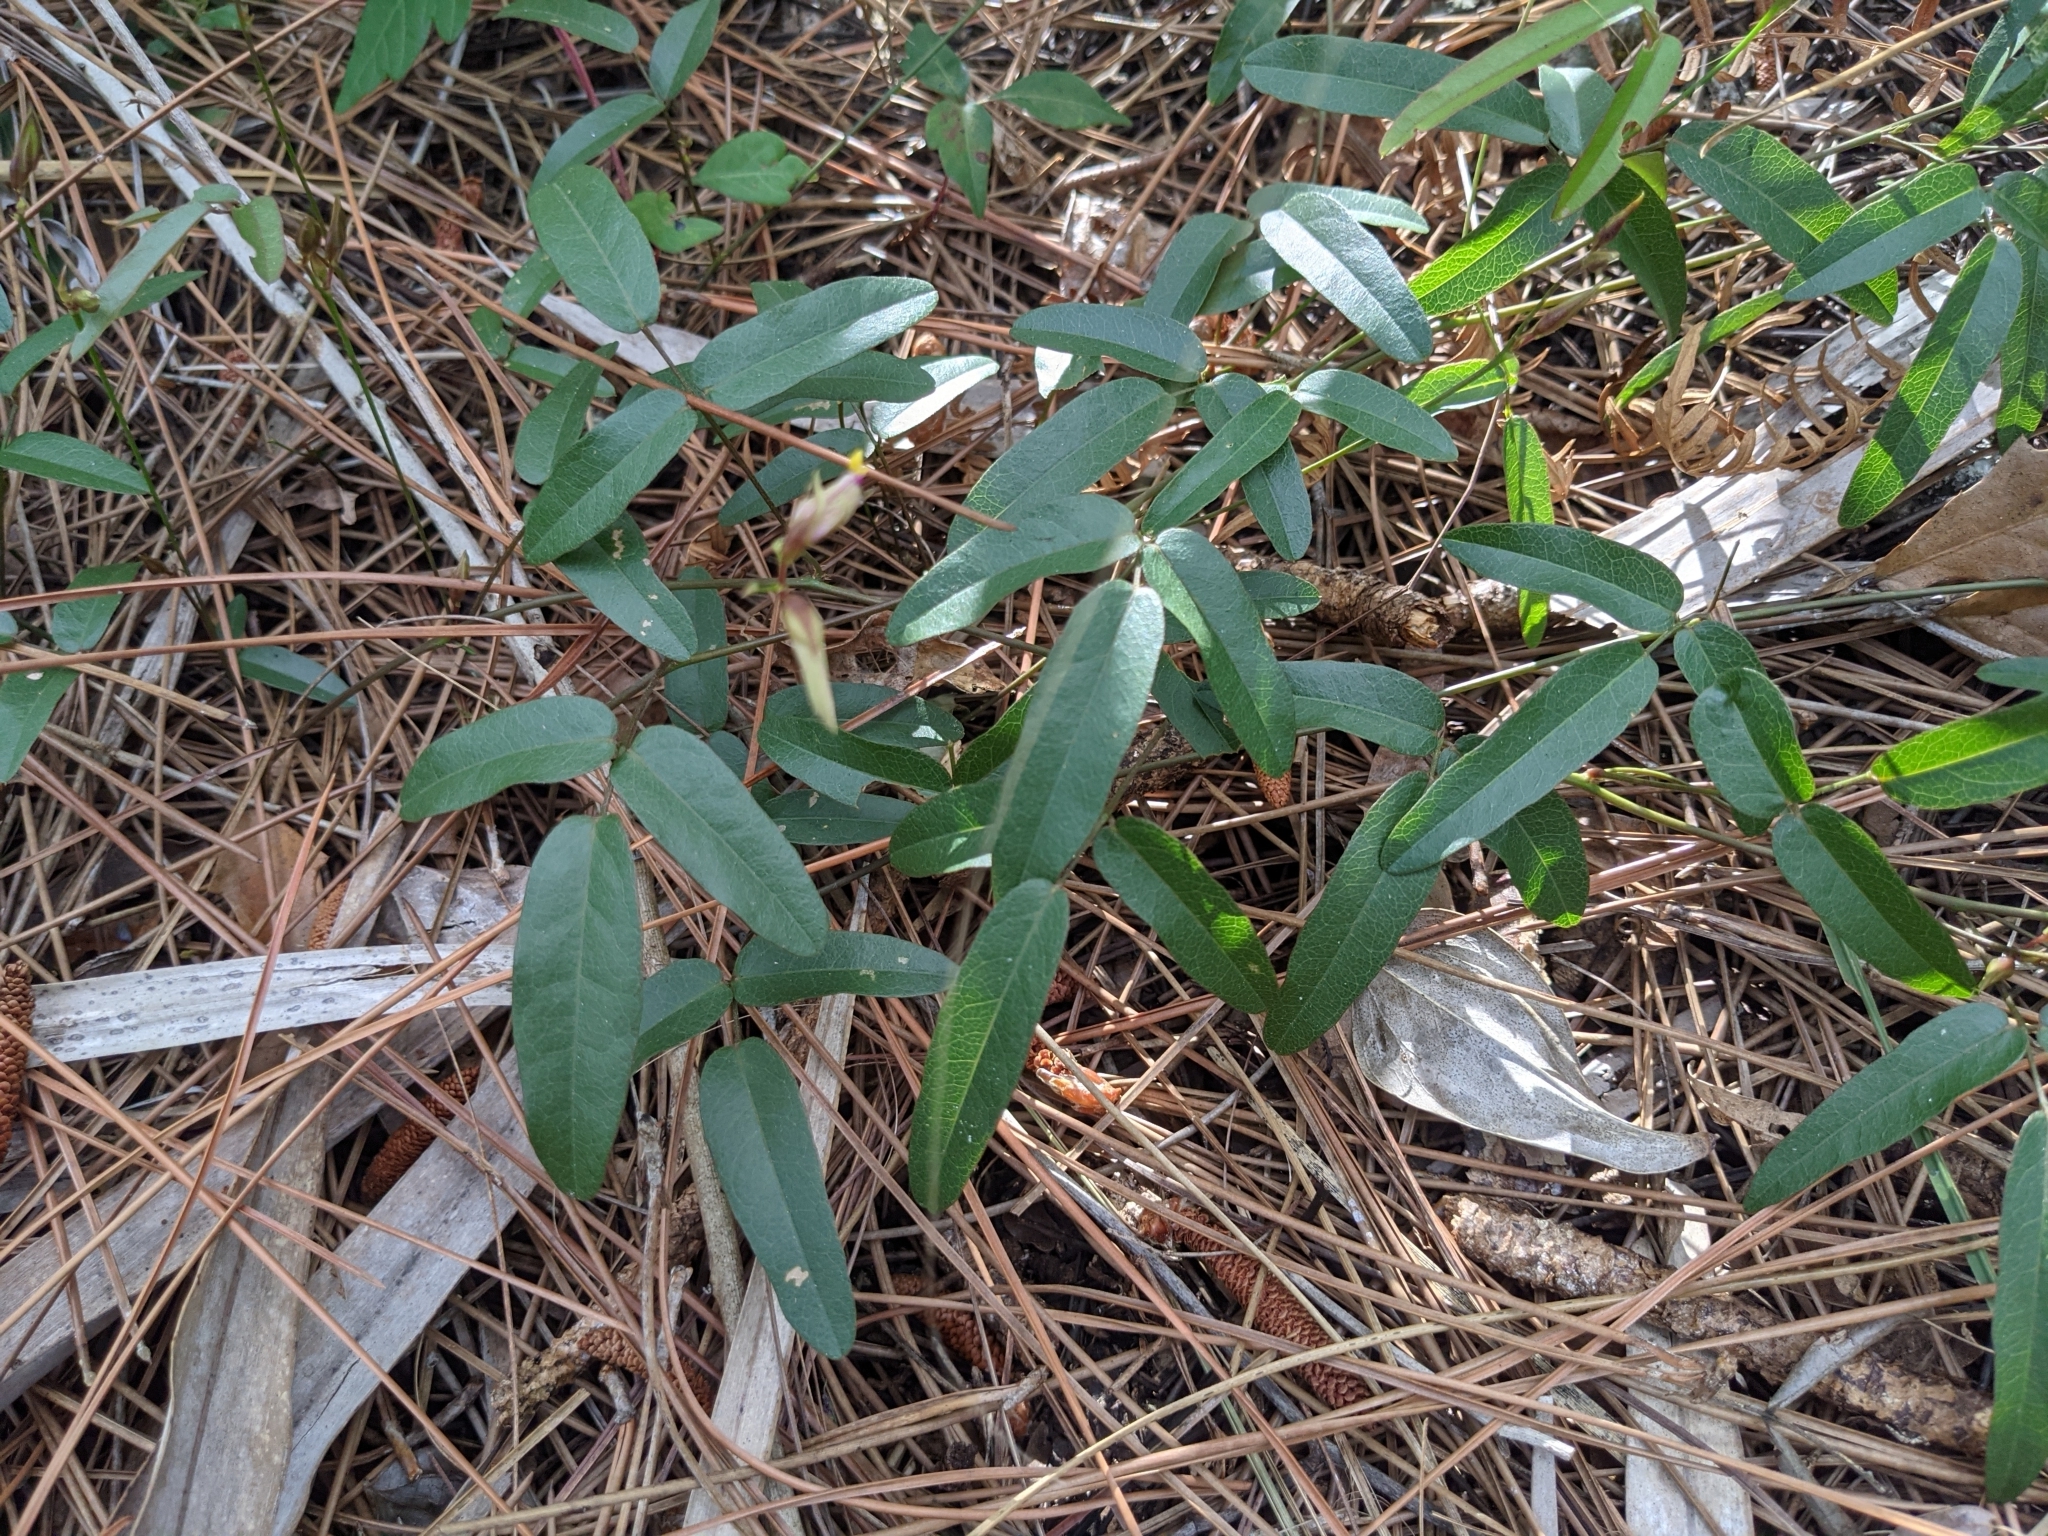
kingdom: Plantae
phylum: Tracheophyta
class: Magnoliopsida
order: Fabales
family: Fabaceae
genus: Galactia
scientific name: Galactia pinetorum
